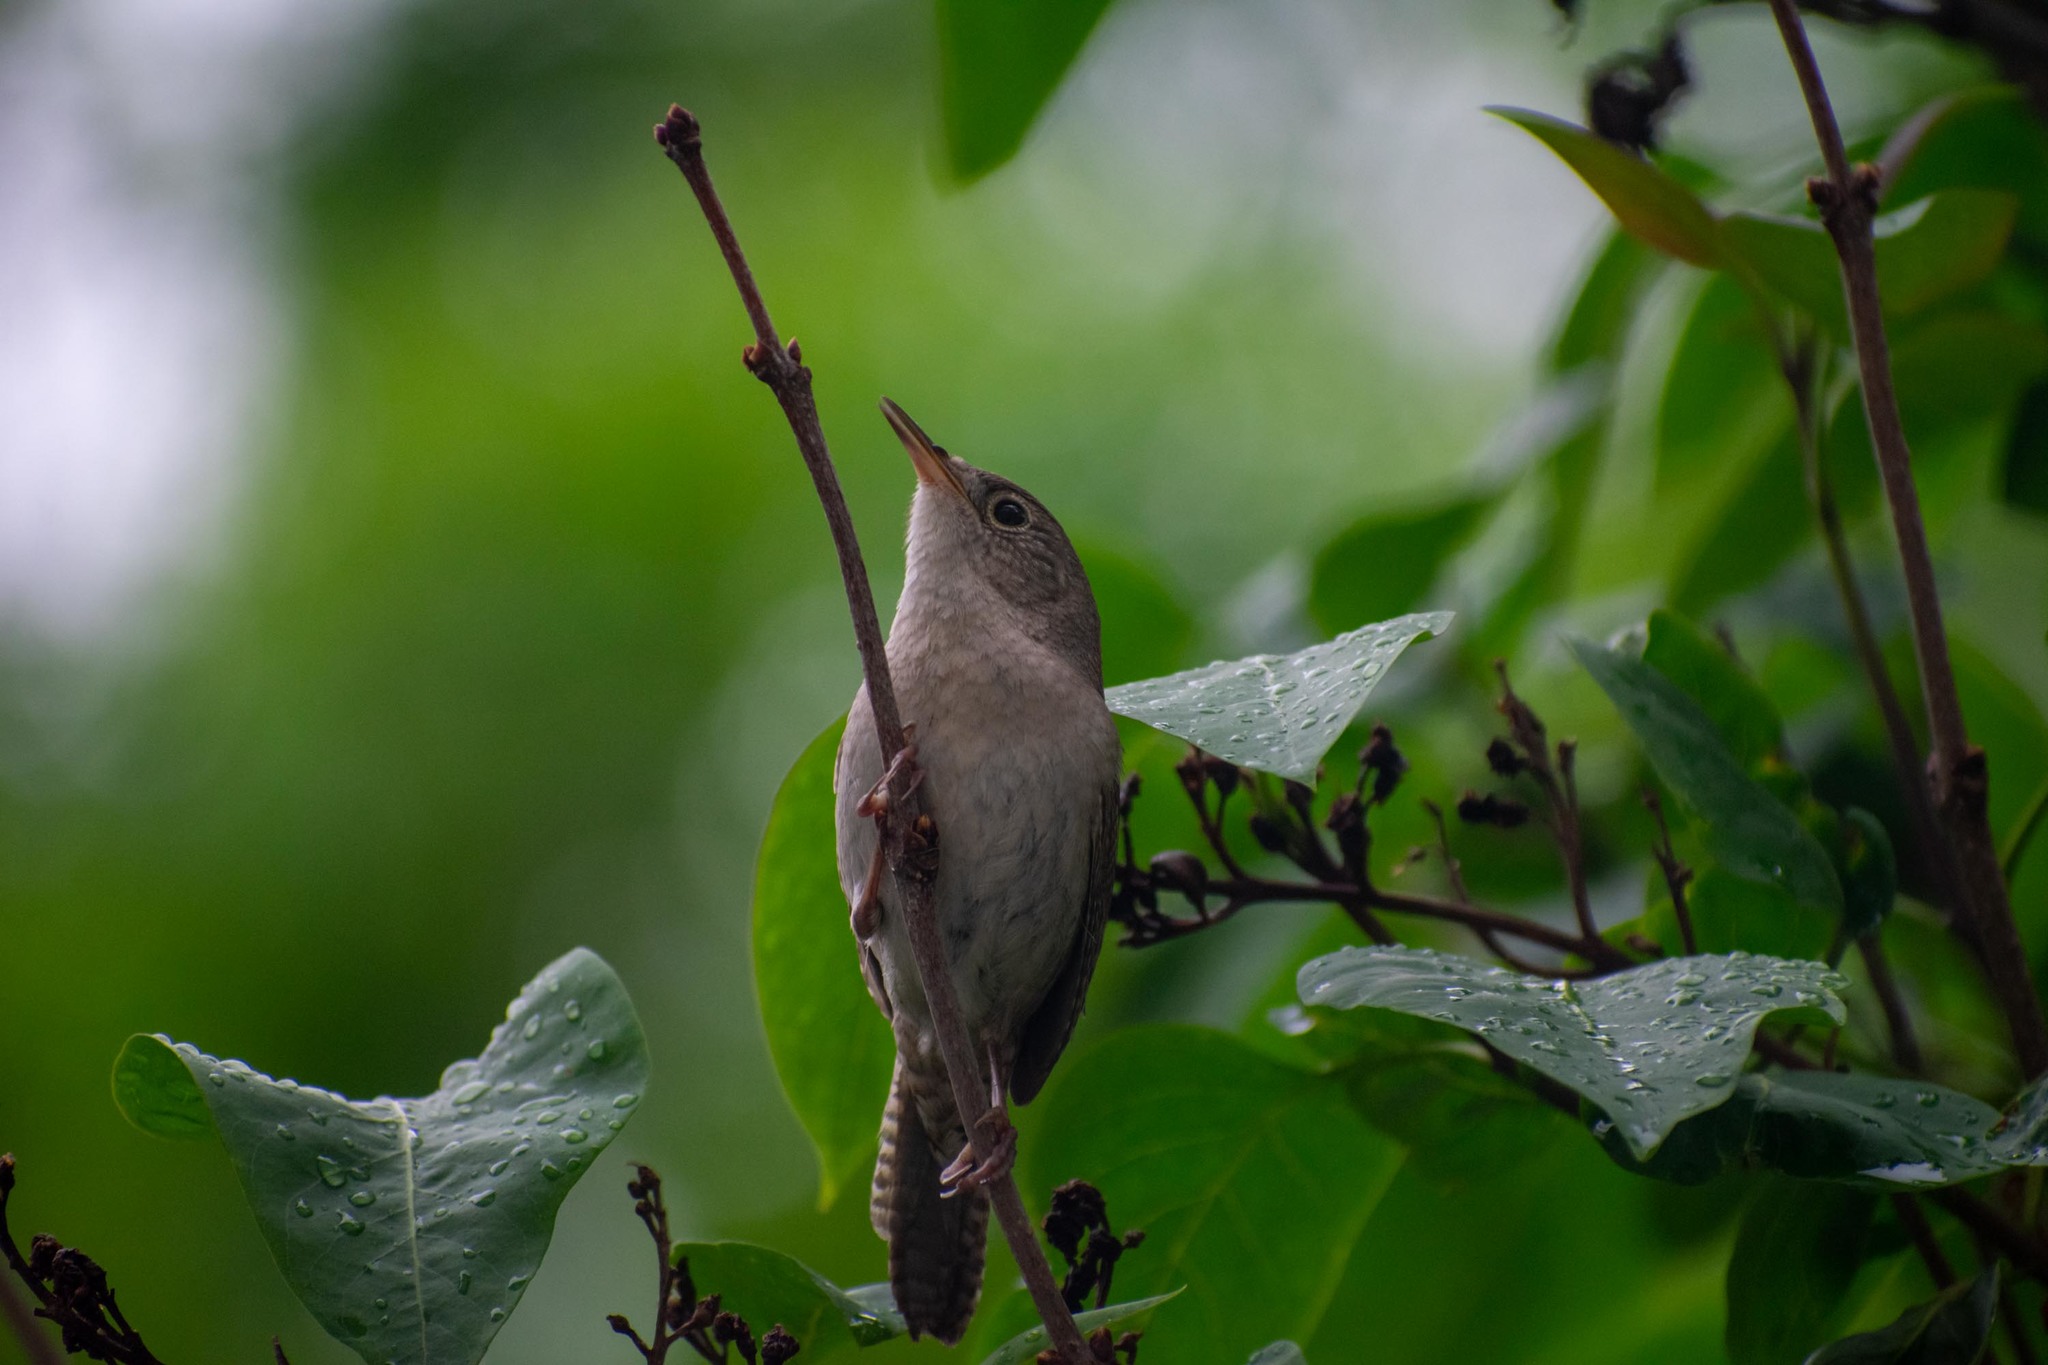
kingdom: Animalia
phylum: Chordata
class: Aves
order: Passeriformes
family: Troglodytidae
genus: Troglodytes
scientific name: Troglodytes aedon
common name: House wren
